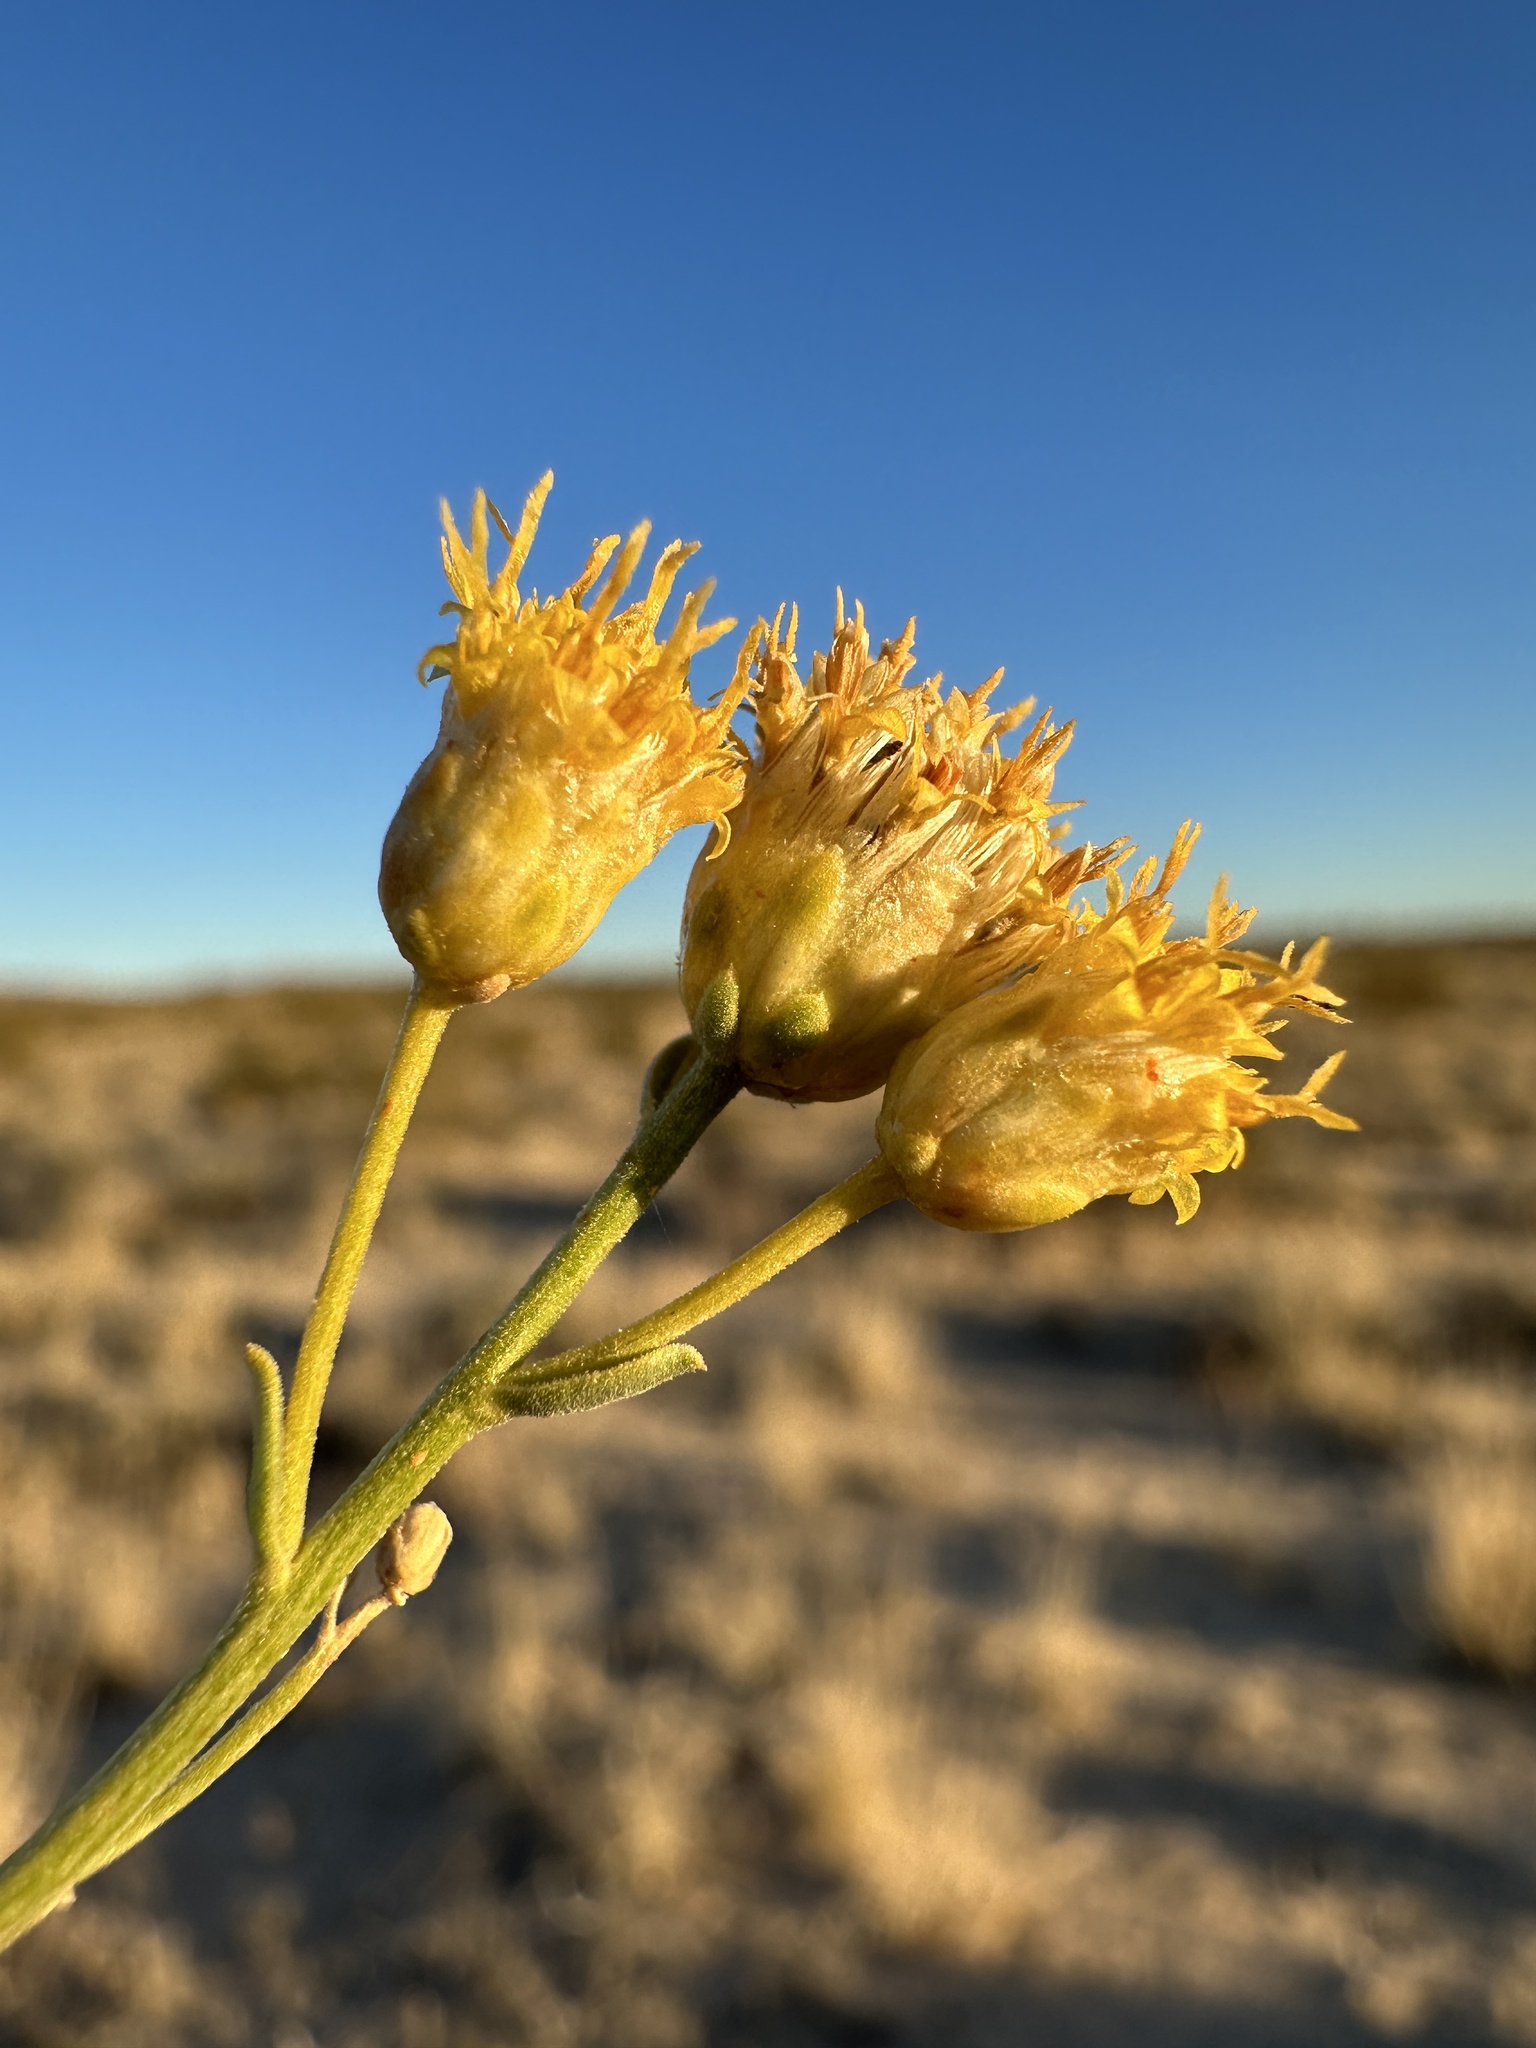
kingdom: Plantae
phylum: Tracheophyta
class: Magnoliopsida
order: Asterales
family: Asteraceae
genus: Acamptopappus
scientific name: Acamptopappus sphaerocephalus
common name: Goldenhead
